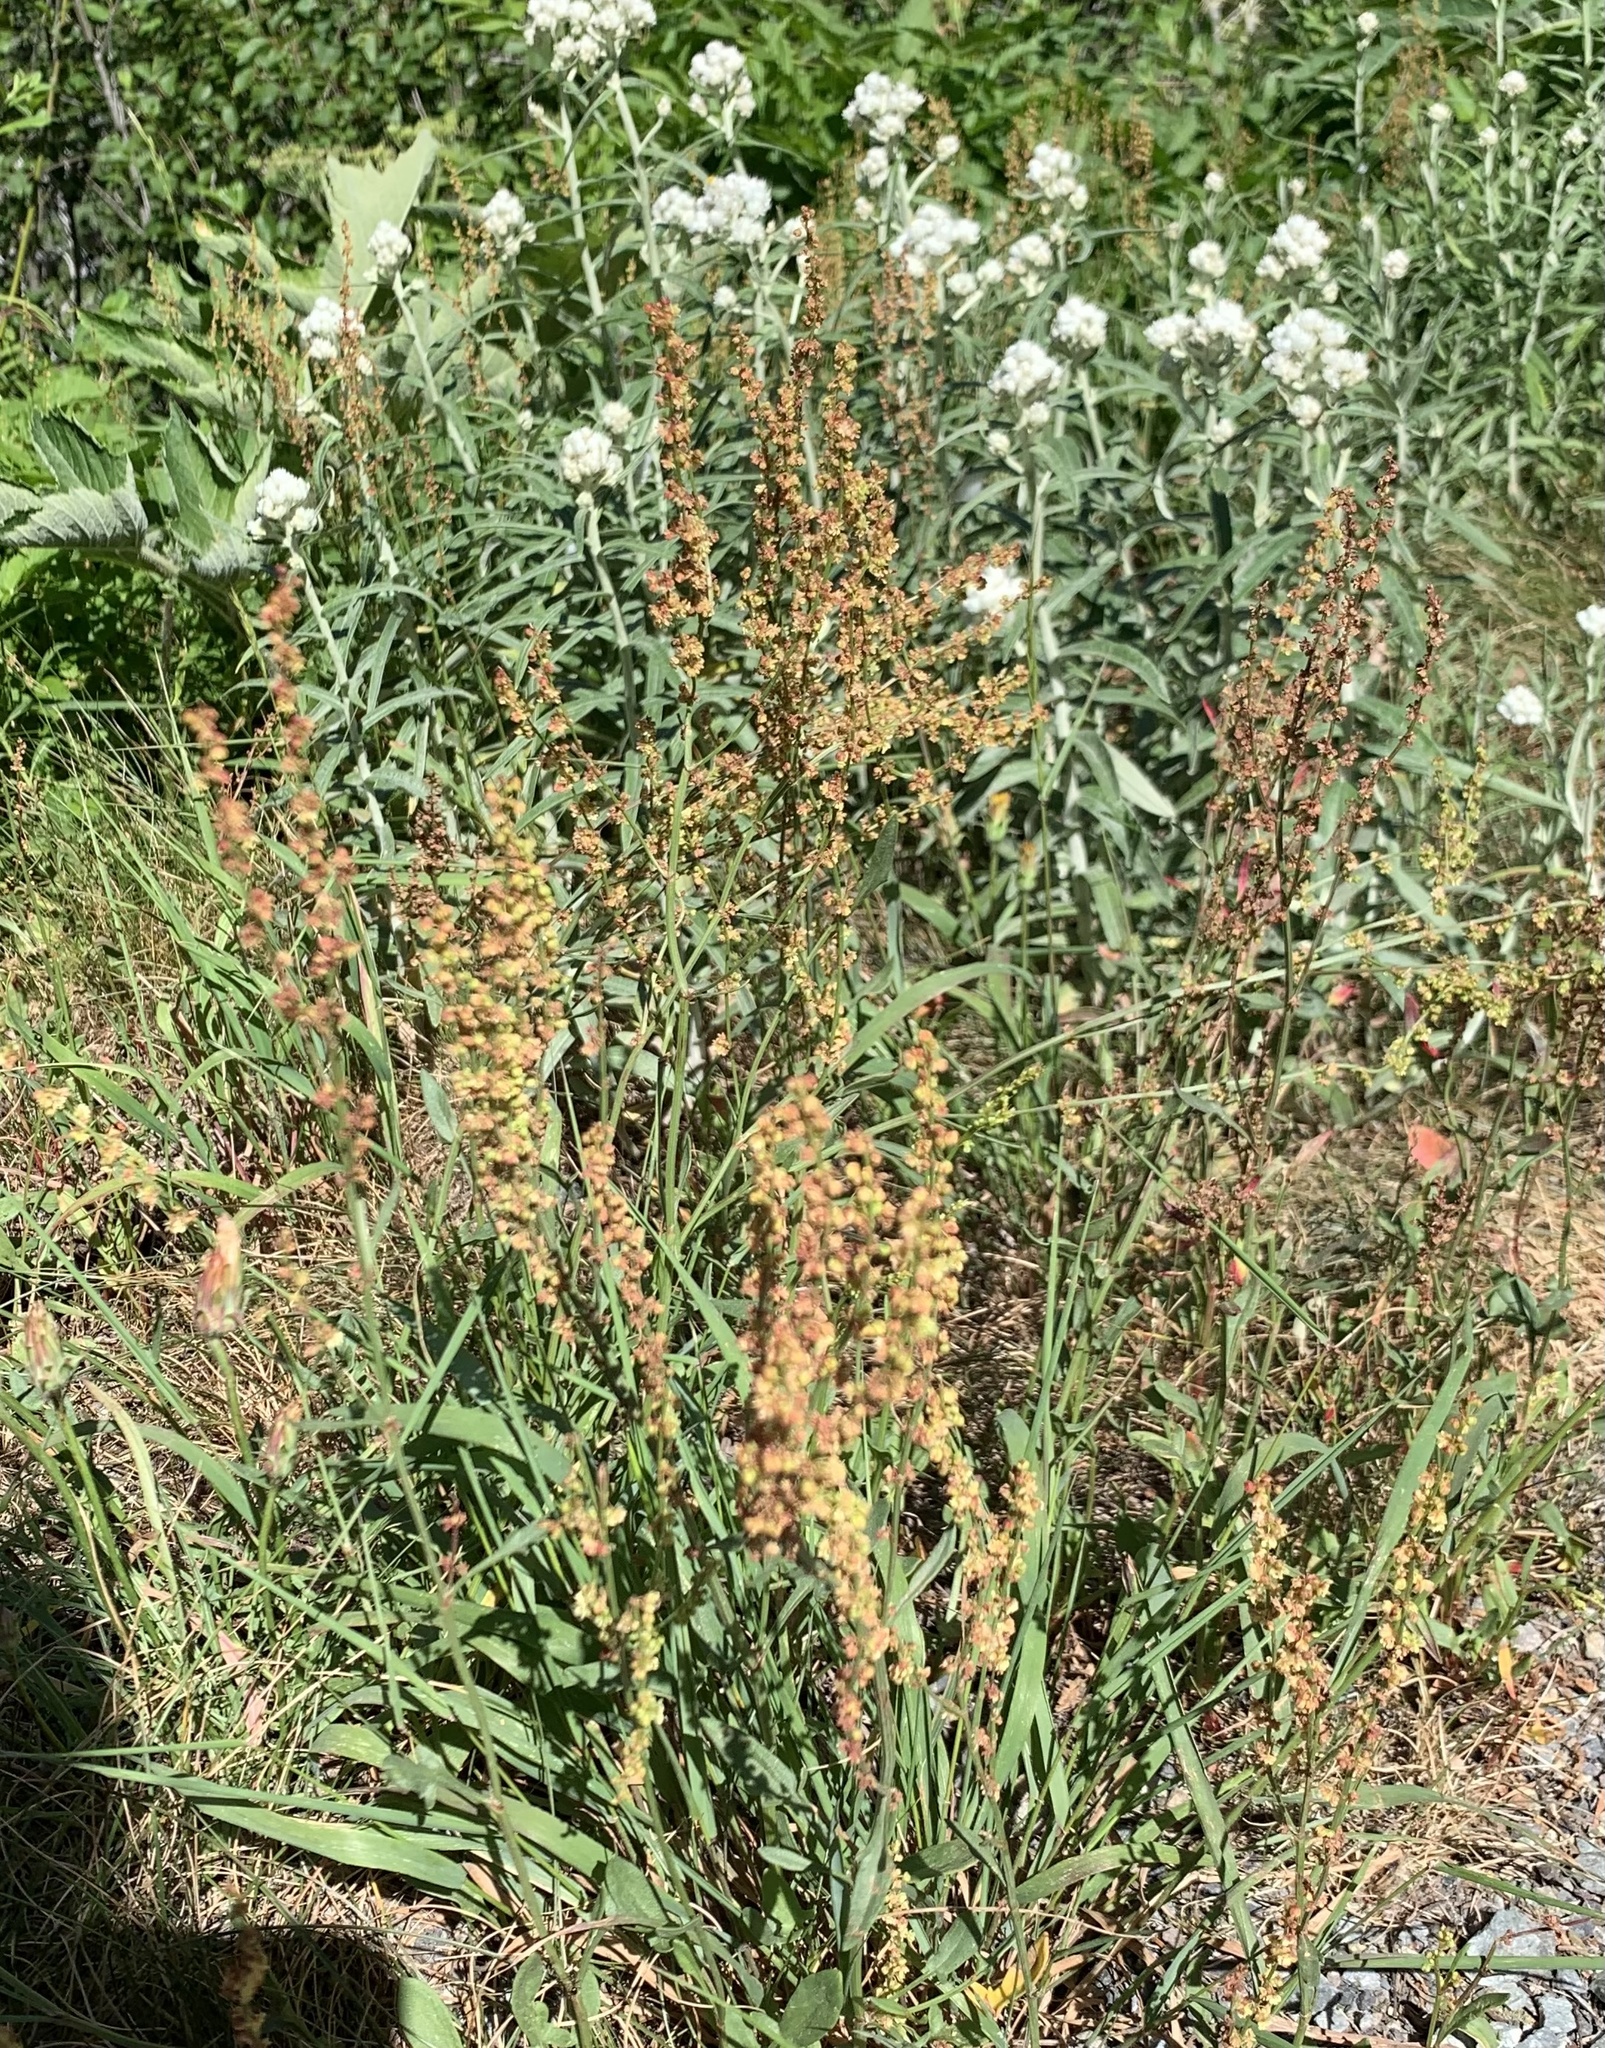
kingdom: Plantae
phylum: Tracheophyta
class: Magnoliopsida
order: Caryophyllales
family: Polygonaceae
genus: Rumex
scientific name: Rumex acetosella
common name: Common sheep sorrel
